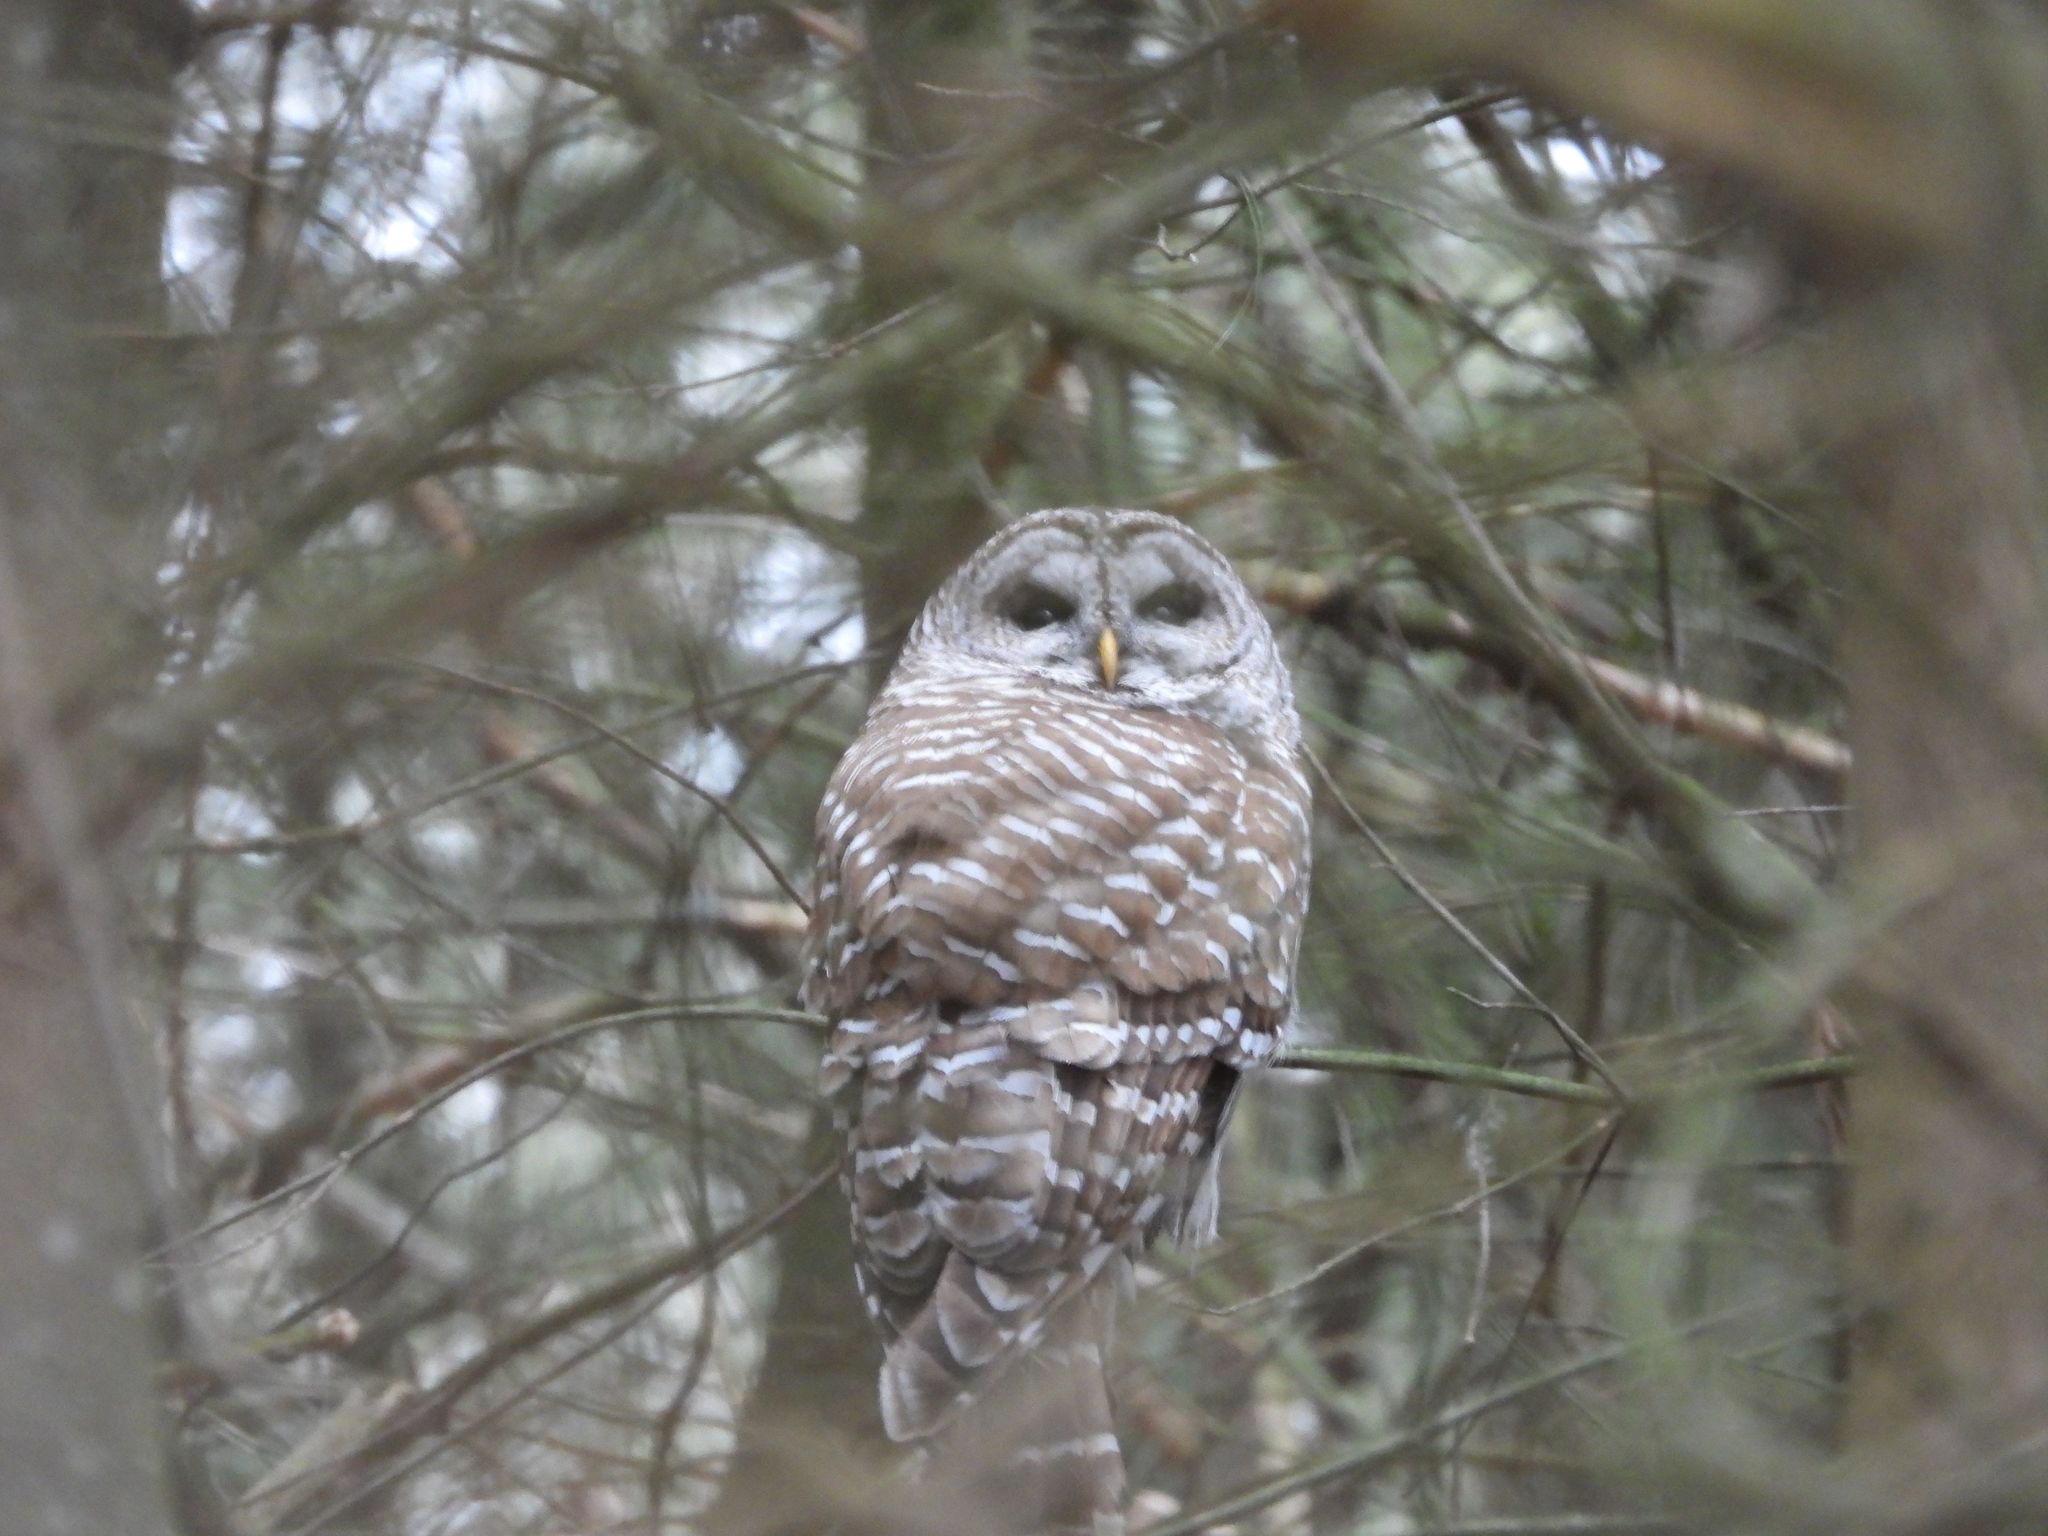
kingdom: Animalia
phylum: Chordata
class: Aves
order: Strigiformes
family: Strigidae
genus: Strix
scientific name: Strix varia
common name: Barred owl
